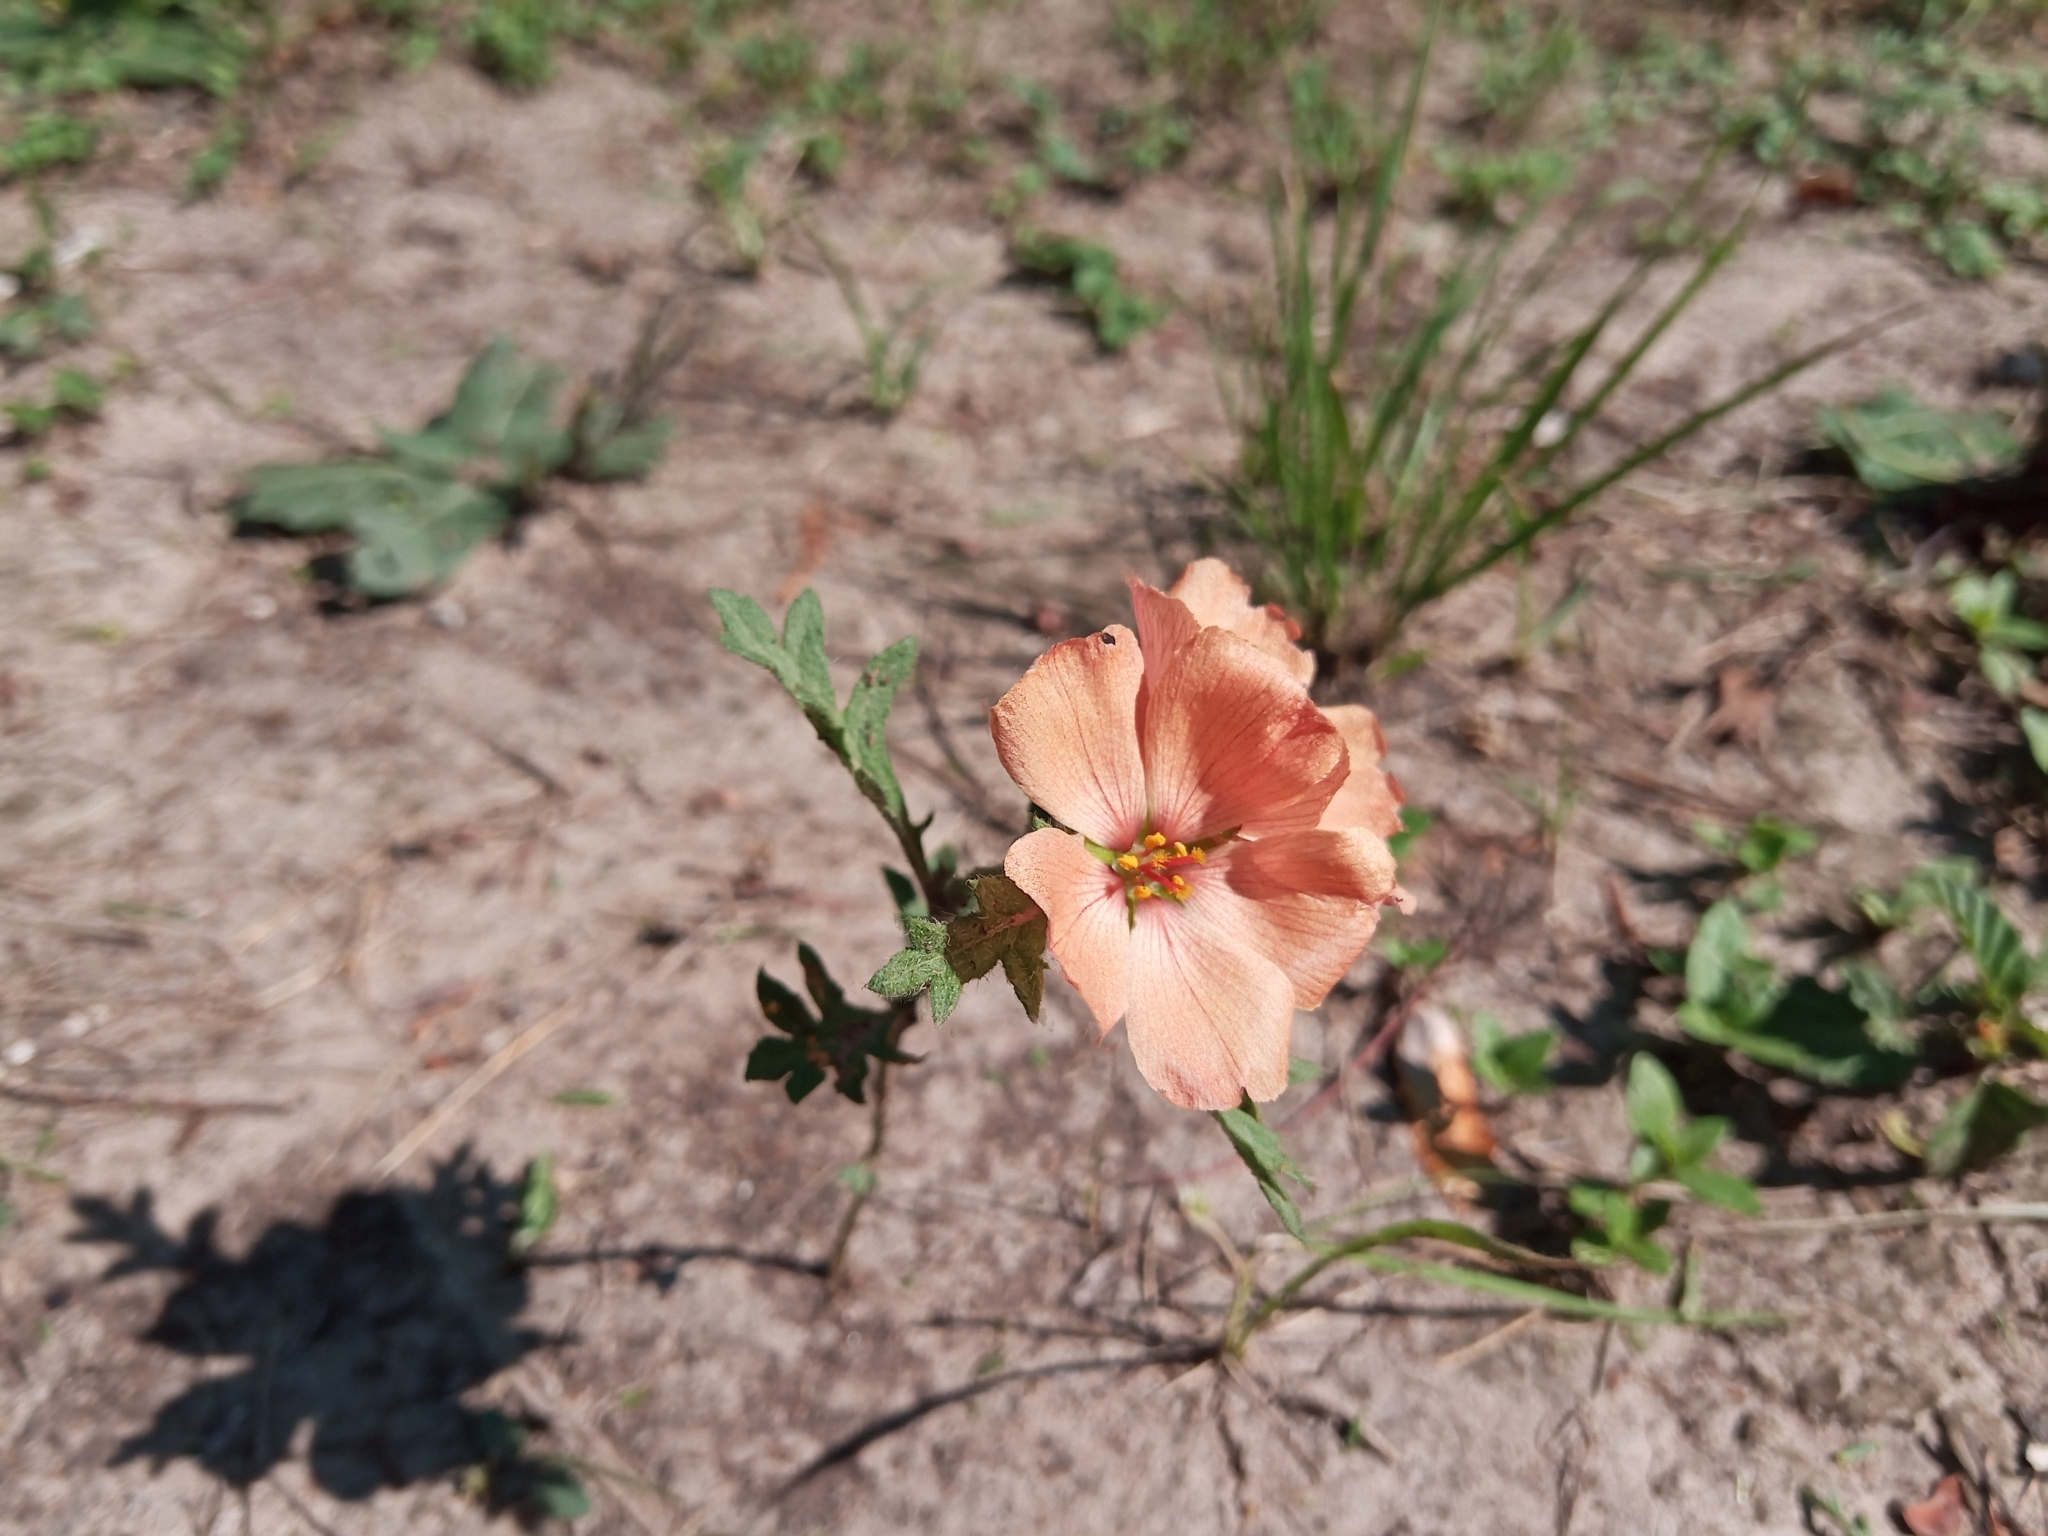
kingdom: Plantae
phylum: Tracheophyta
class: Magnoliopsida
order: Malpighiales
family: Turneraceae
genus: Turnera
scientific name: Turnera sidoides
